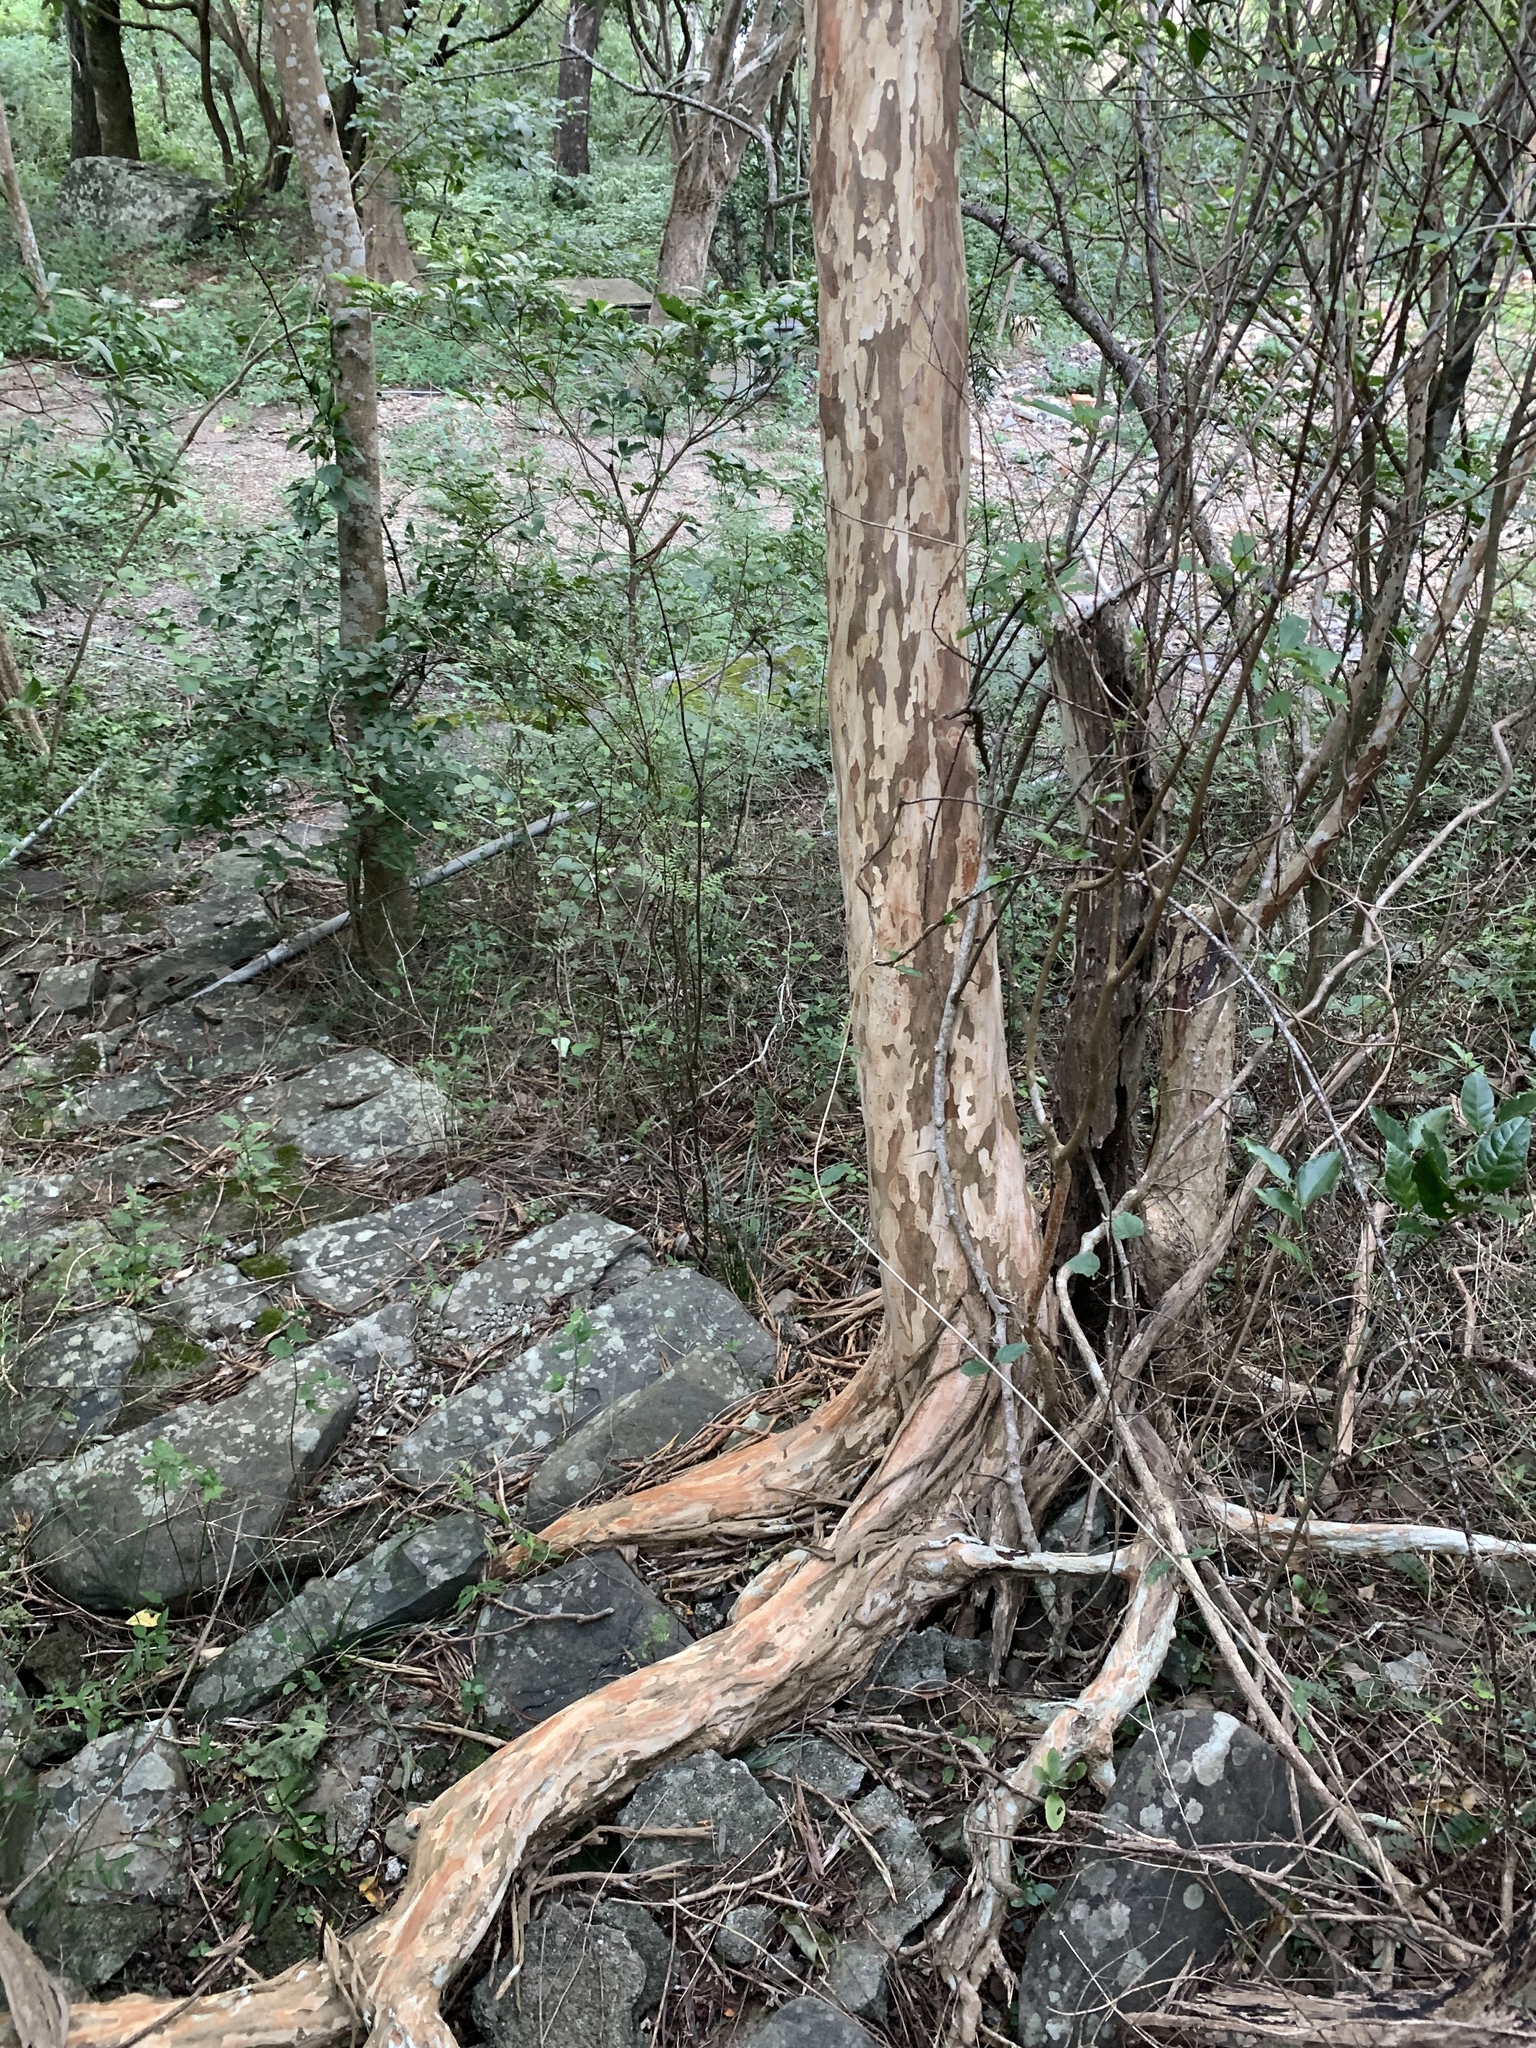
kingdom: Plantae
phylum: Tracheophyta
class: Magnoliopsida
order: Myrtales
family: Lythraceae
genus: Lagerstroemia
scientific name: Lagerstroemia subcostata
